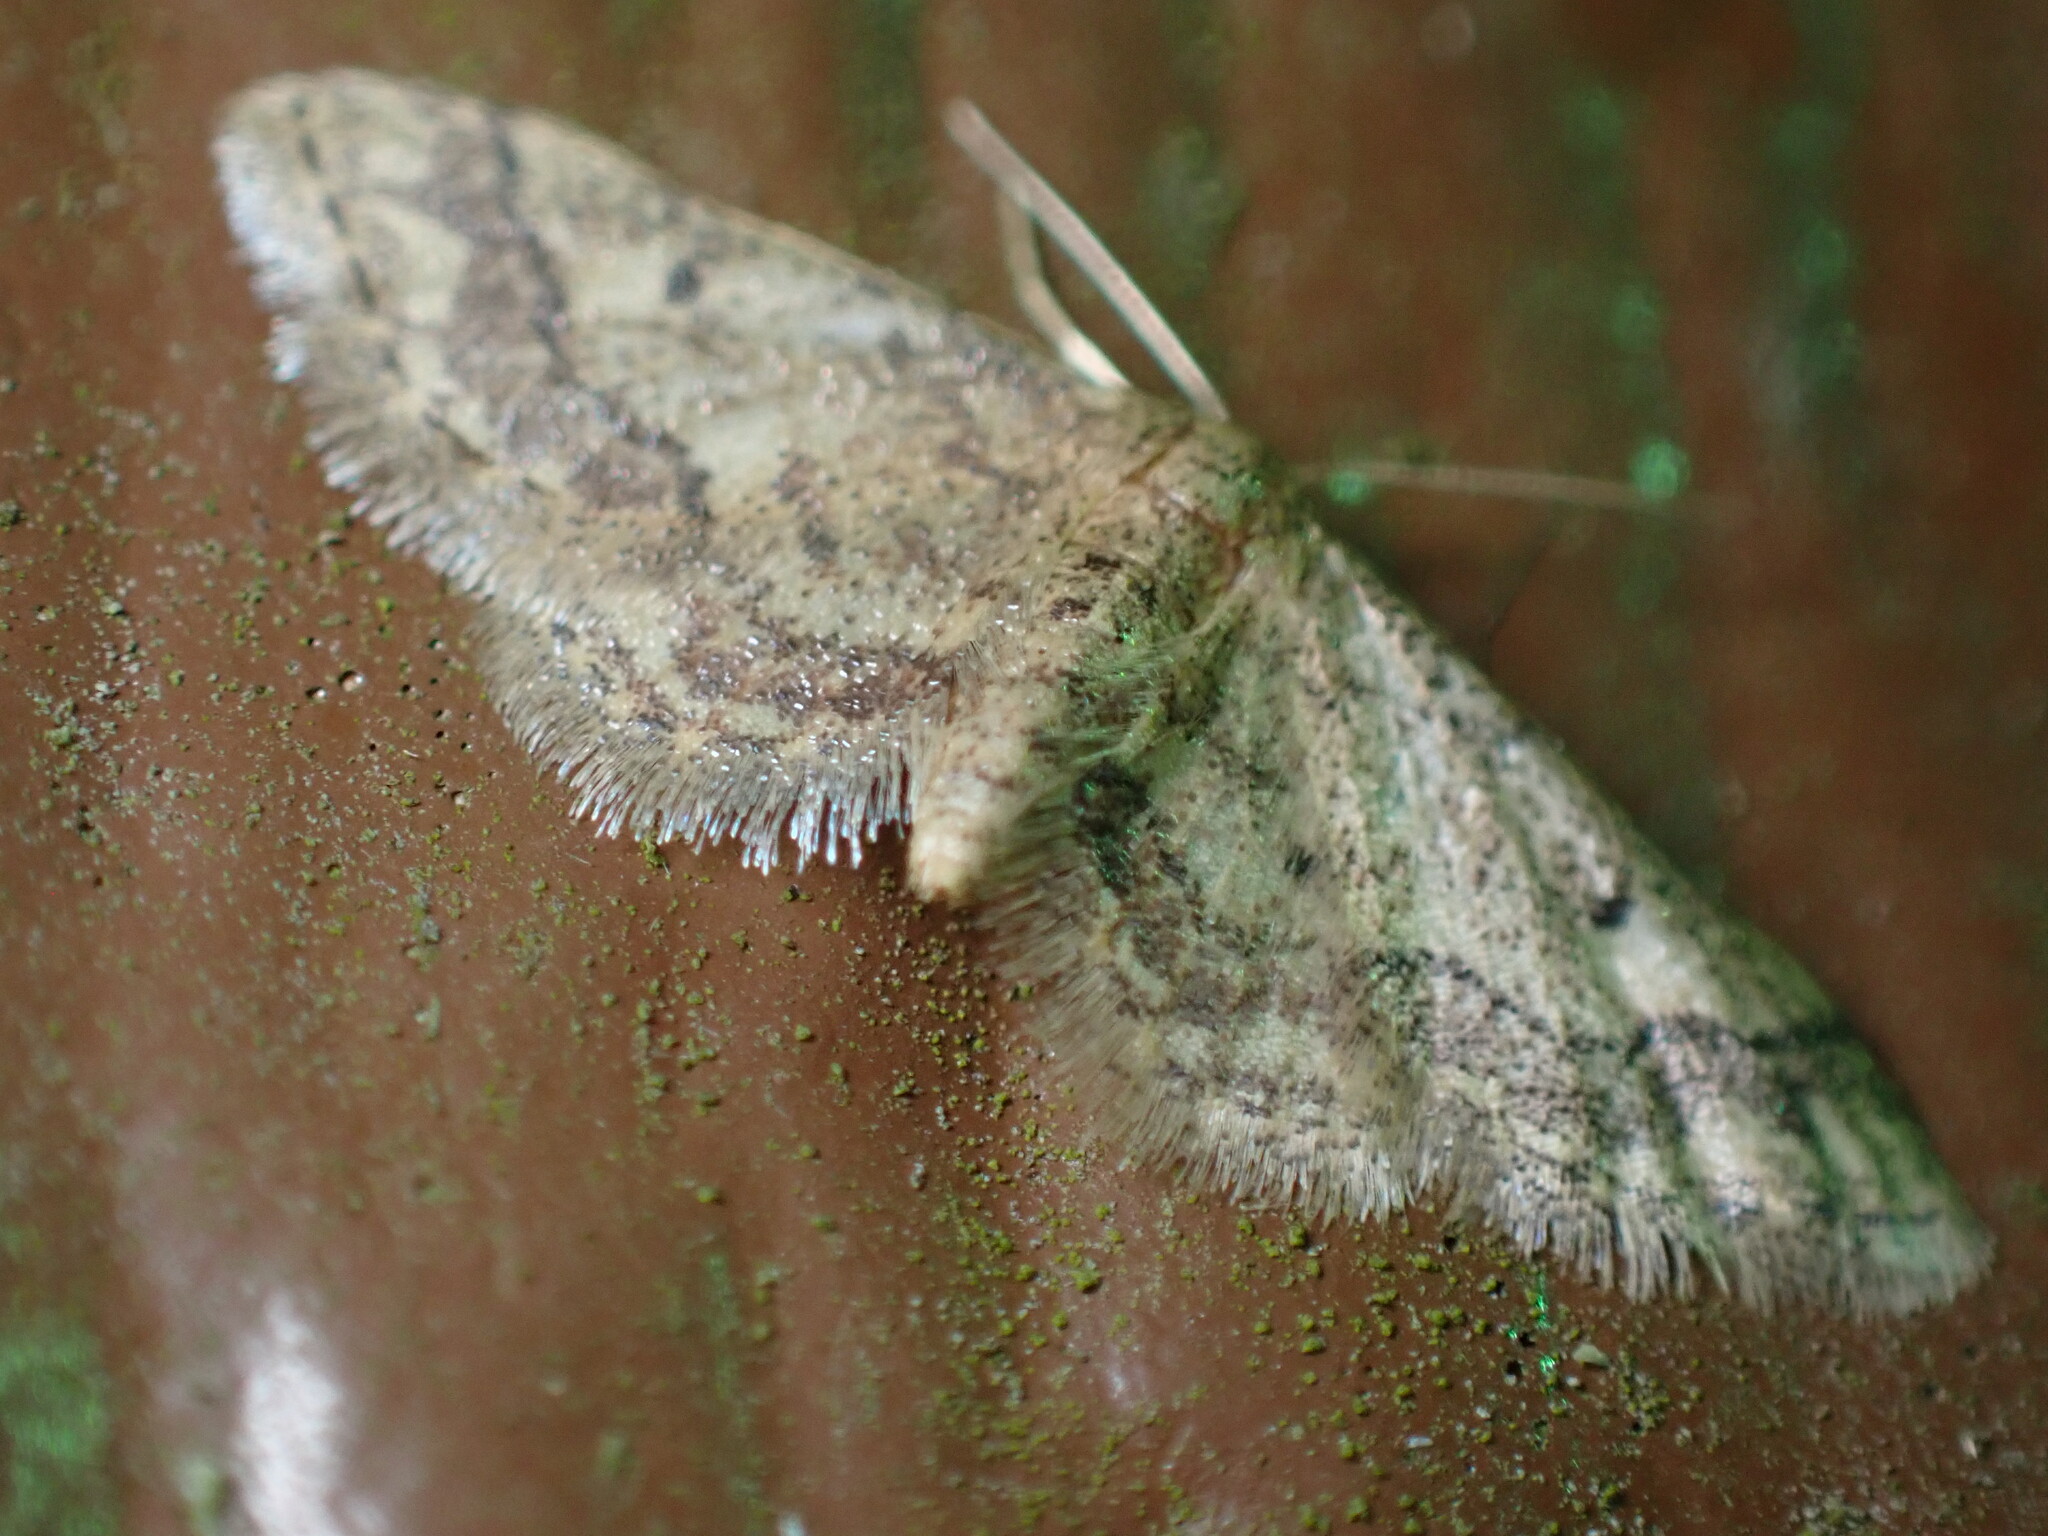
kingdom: Animalia
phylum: Arthropoda
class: Insecta
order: Lepidoptera
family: Geometridae
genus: Idaea
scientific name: Idaea celtima
